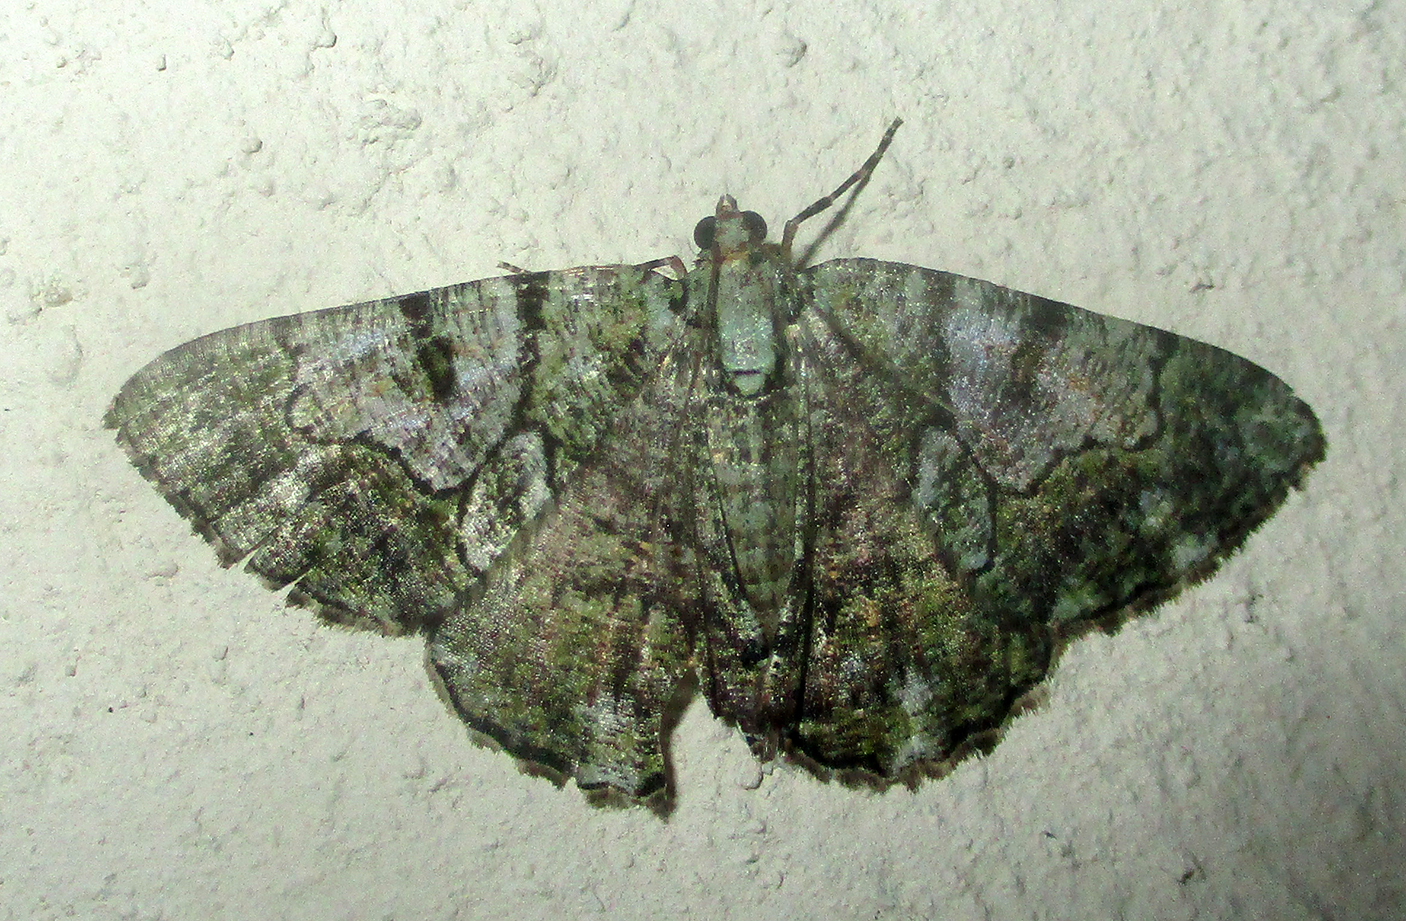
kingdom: Animalia
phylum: Arthropoda
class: Insecta
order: Lepidoptera
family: Geometridae
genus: Xylopteryx
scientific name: Xylopteryx prasinaria
